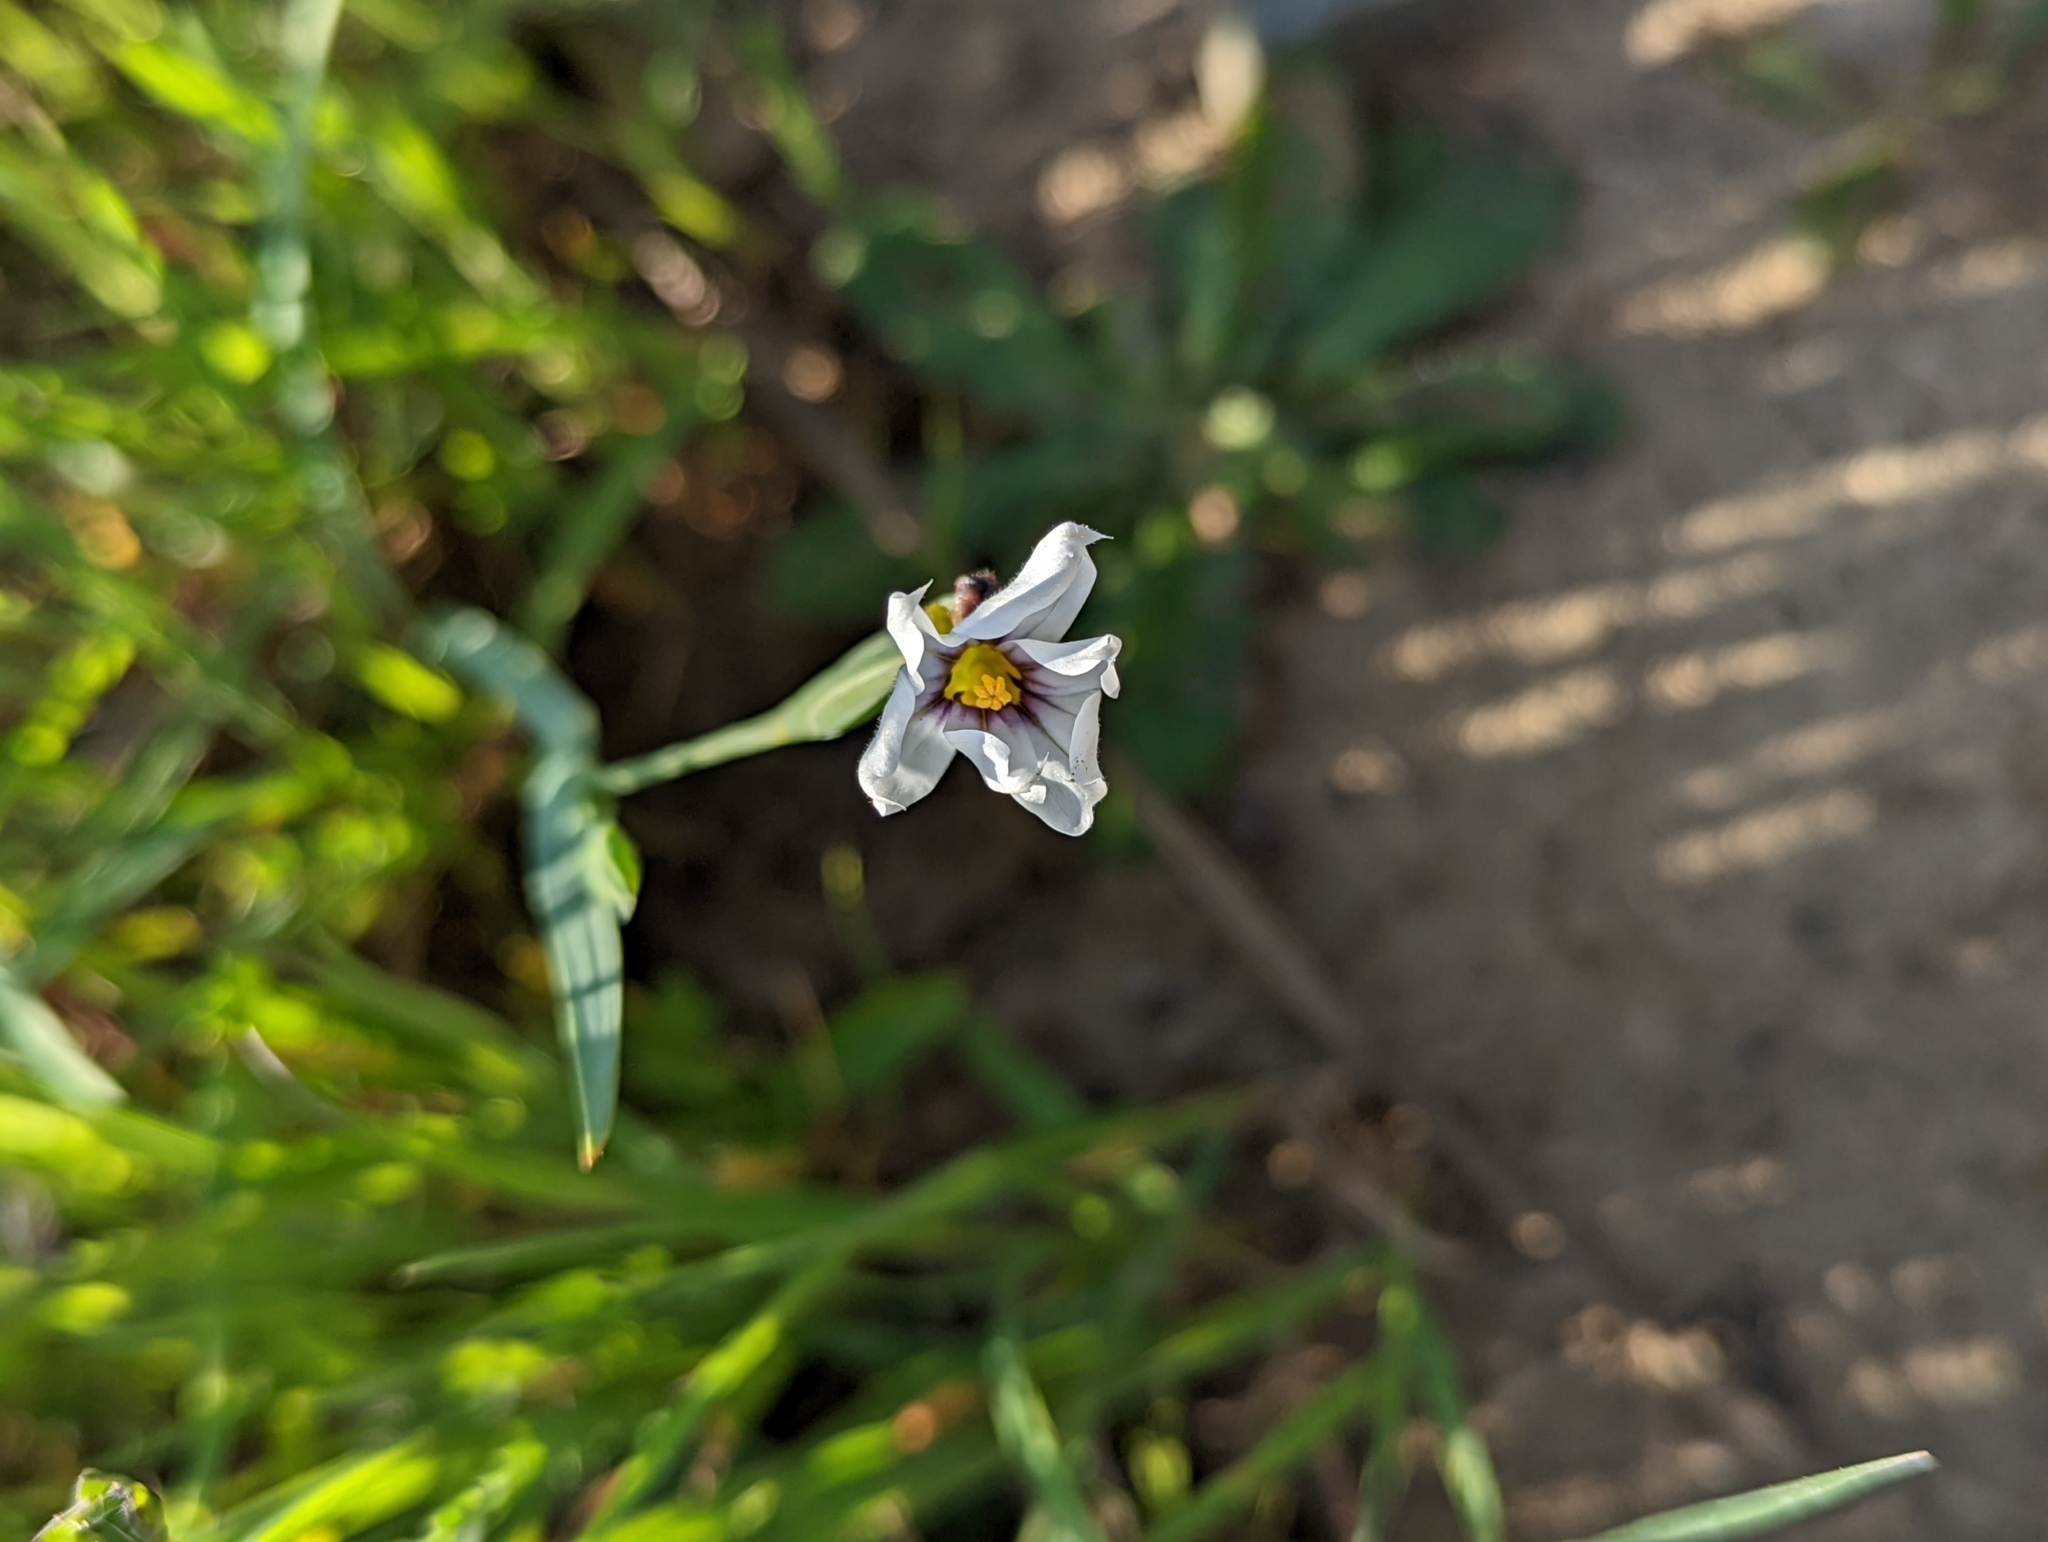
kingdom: Plantae
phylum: Tracheophyta
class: Liliopsida
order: Asparagales
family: Iridaceae
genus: Sisyrinchium
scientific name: Sisyrinchium bellum
